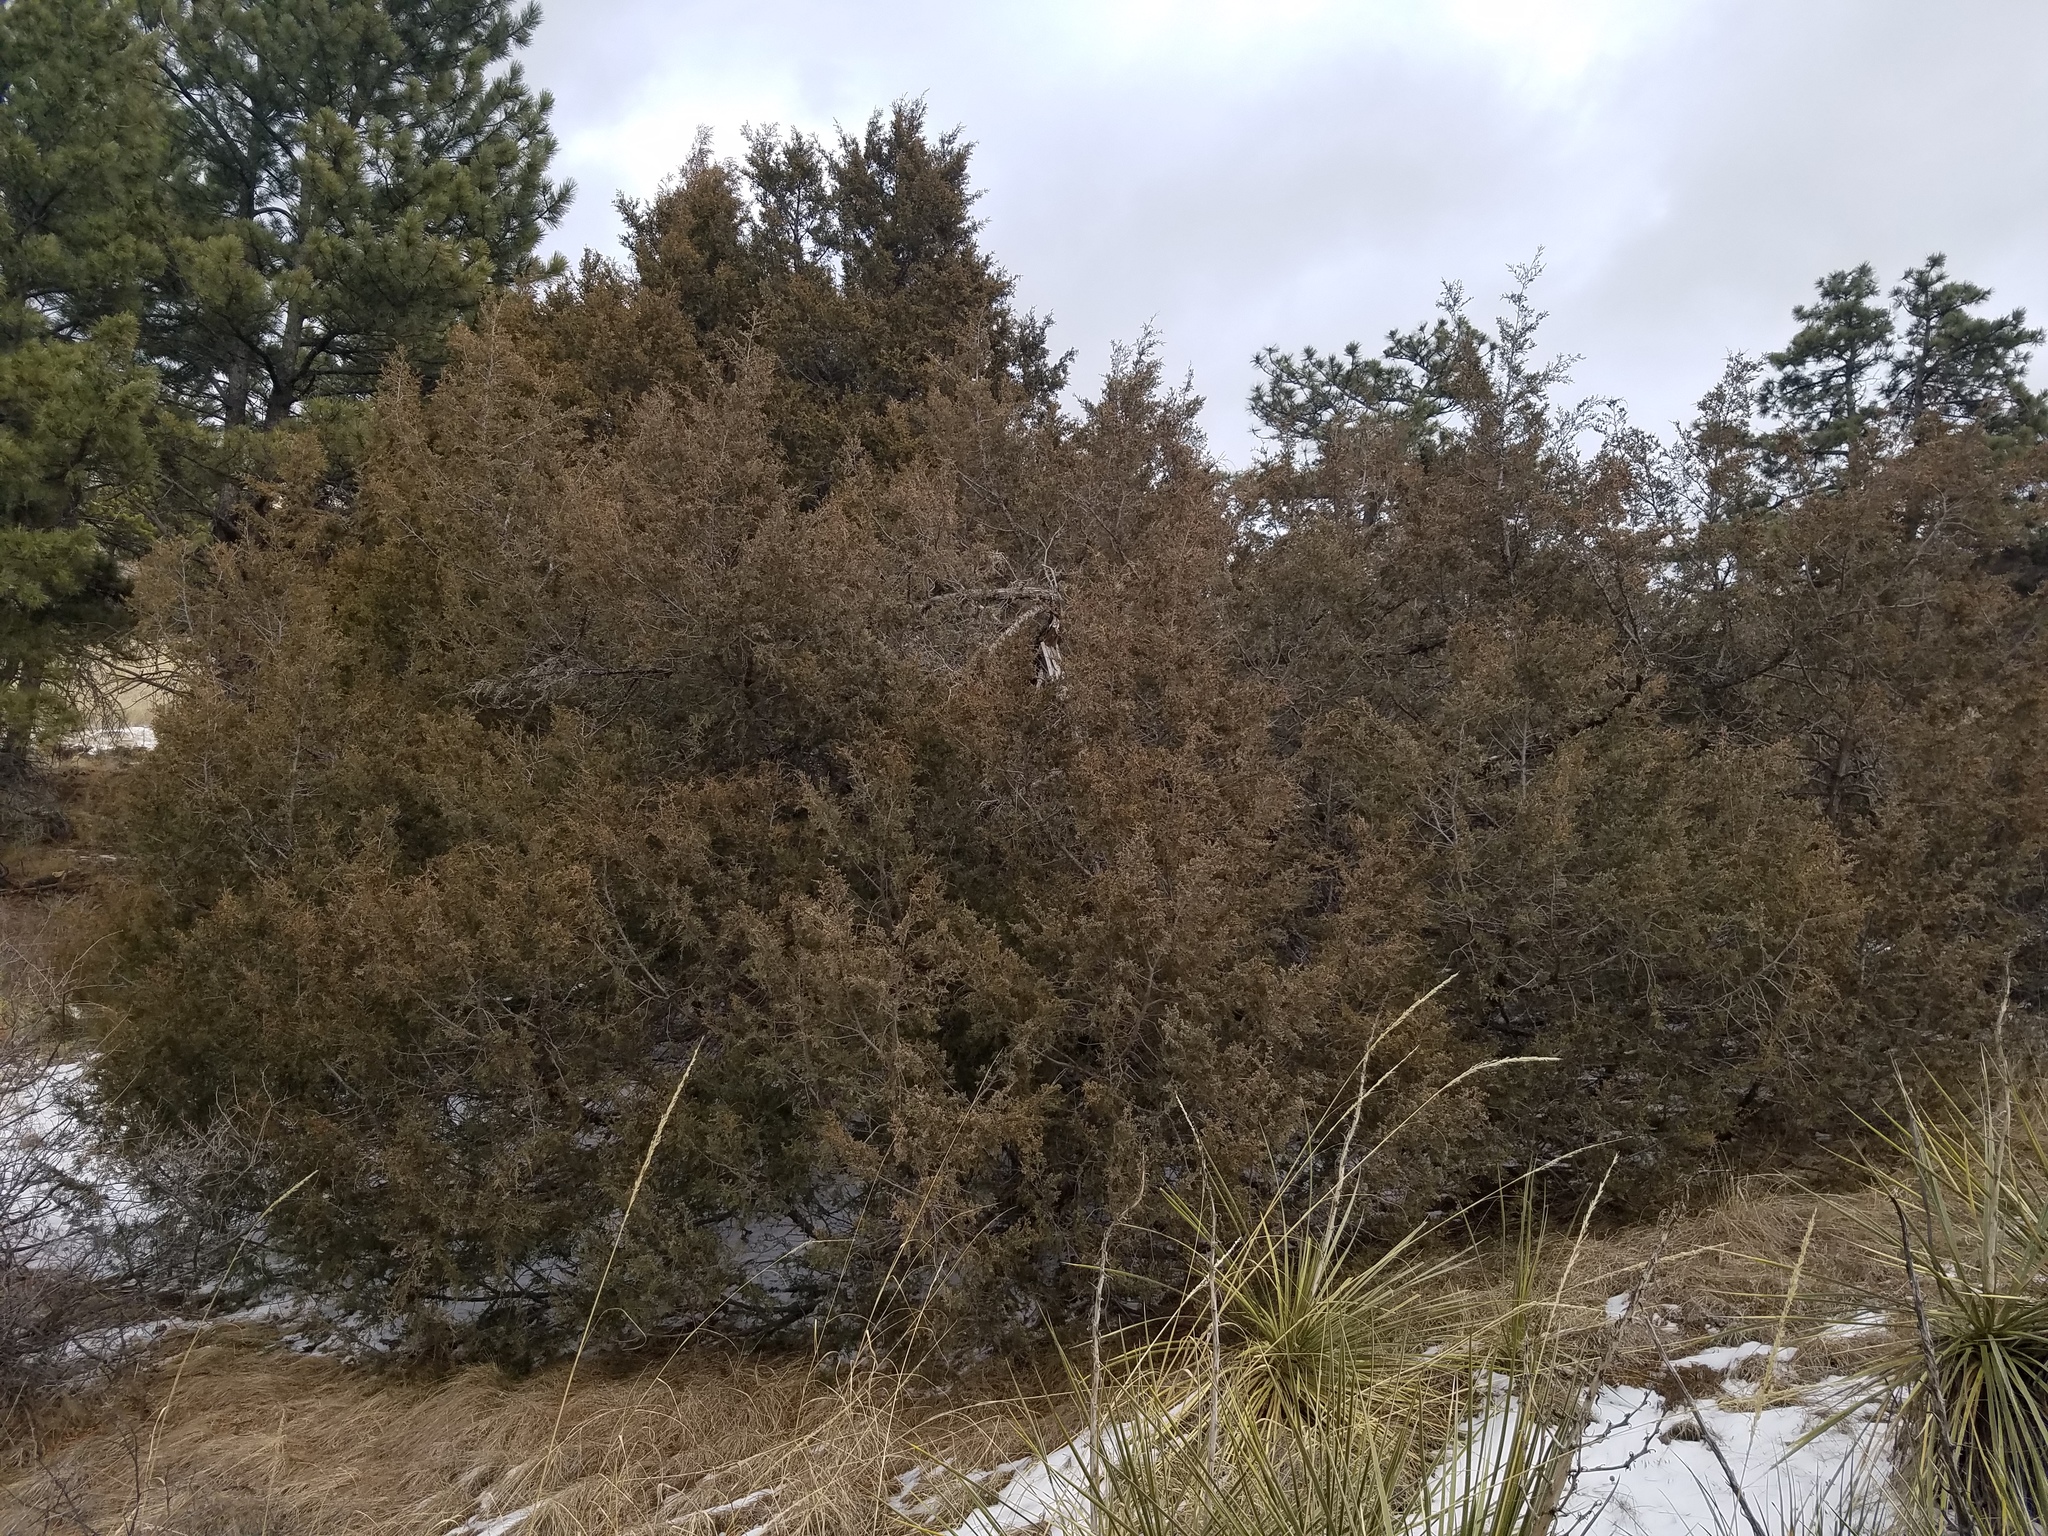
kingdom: Plantae
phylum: Tracheophyta
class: Pinopsida
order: Pinales
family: Cupressaceae
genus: Juniperus
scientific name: Juniperus scopulorum
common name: Rocky mountain juniper
